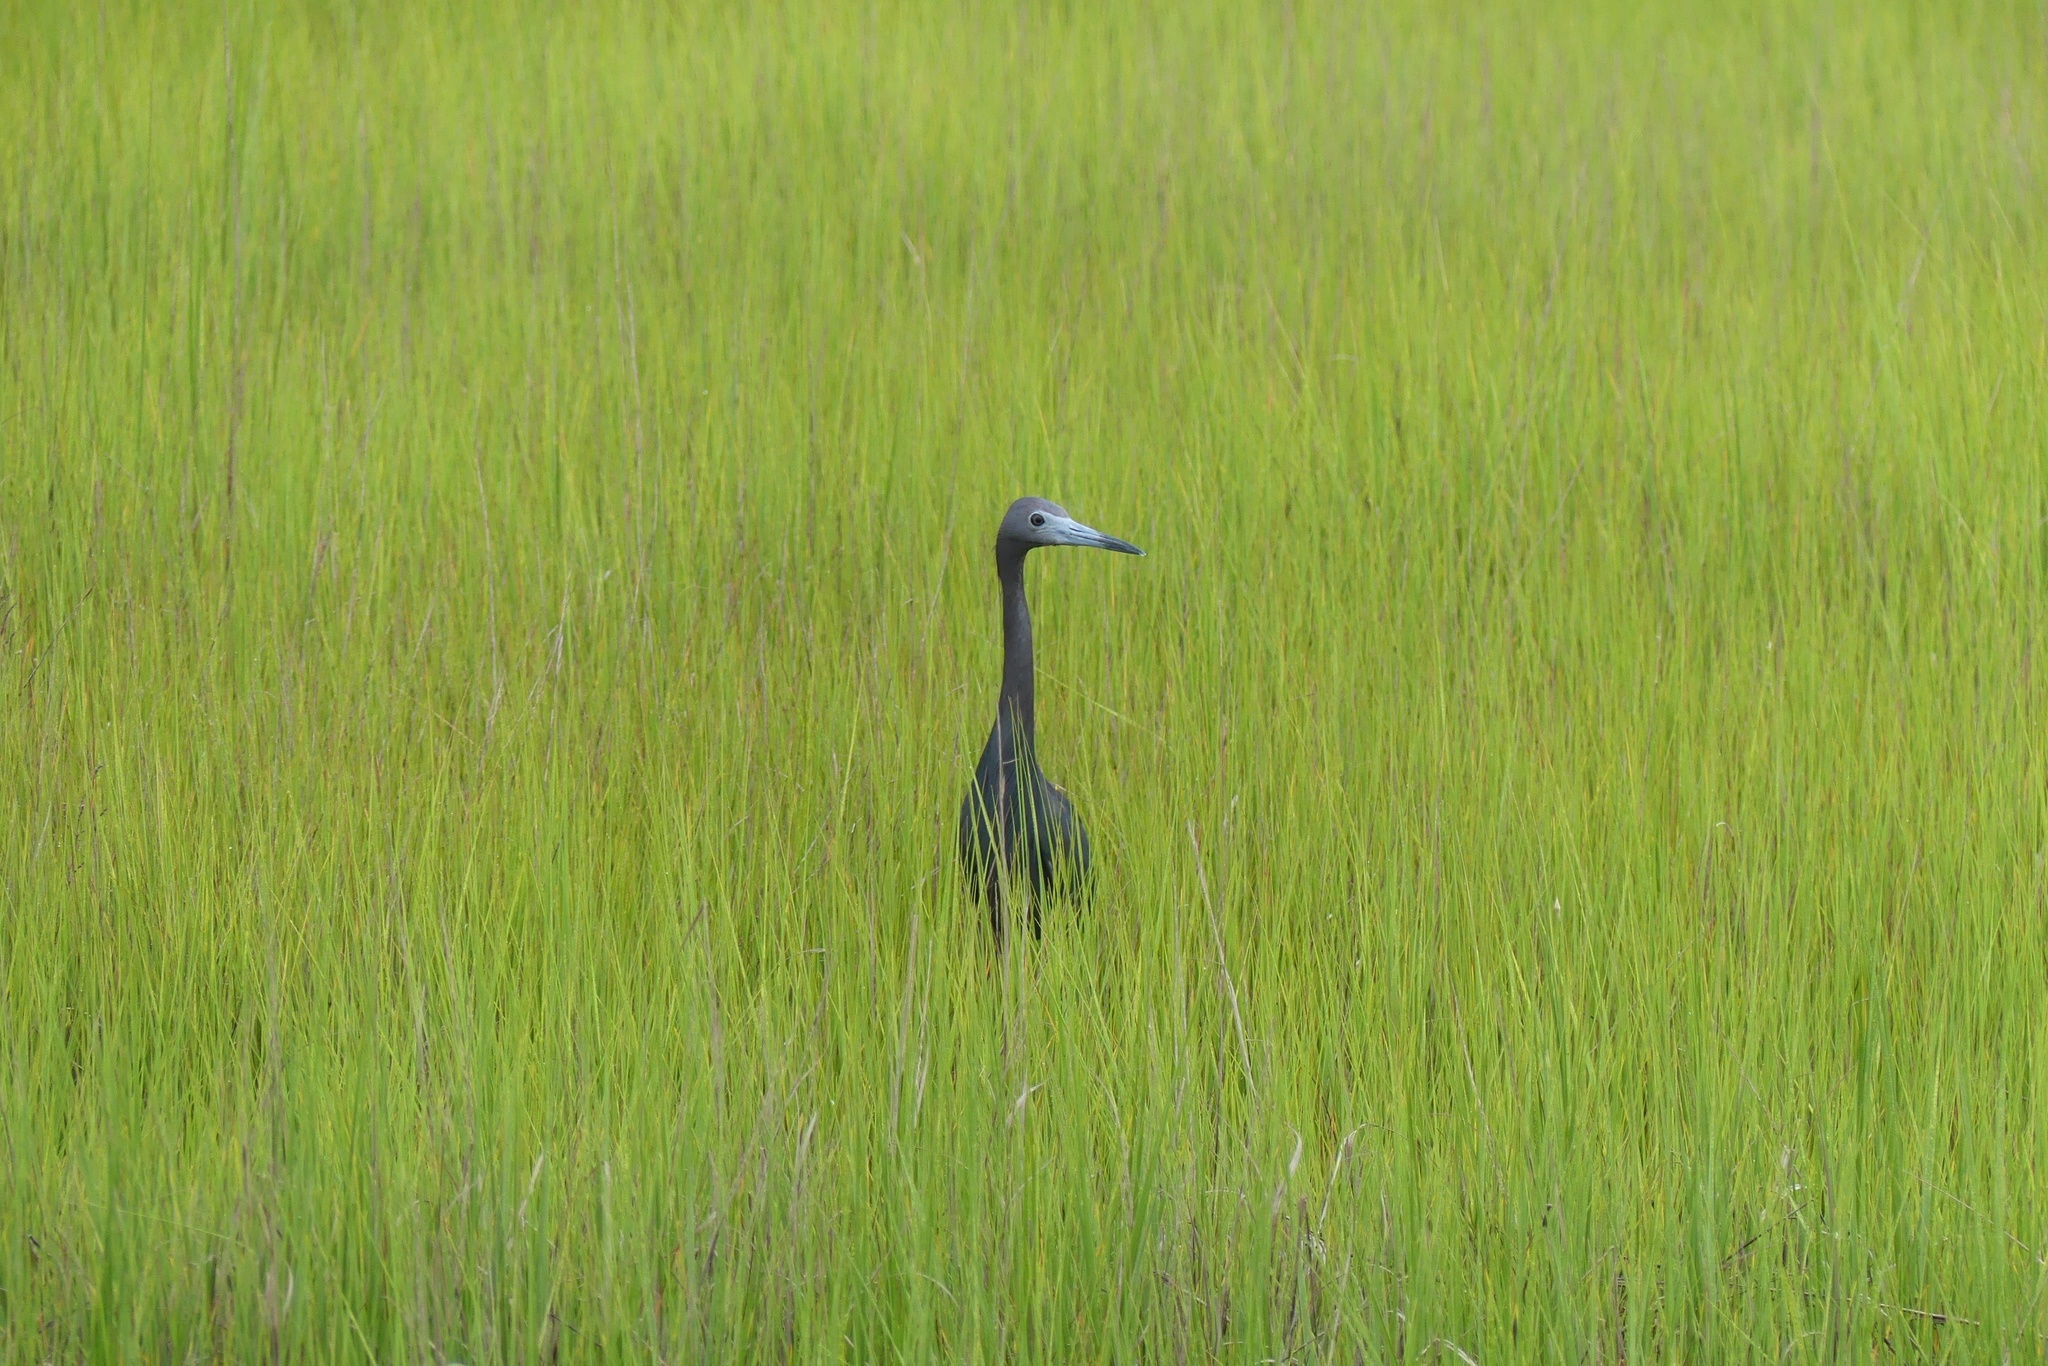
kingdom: Animalia
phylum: Chordata
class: Aves
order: Pelecaniformes
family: Ardeidae
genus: Egretta
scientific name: Egretta caerulea
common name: Little blue heron
